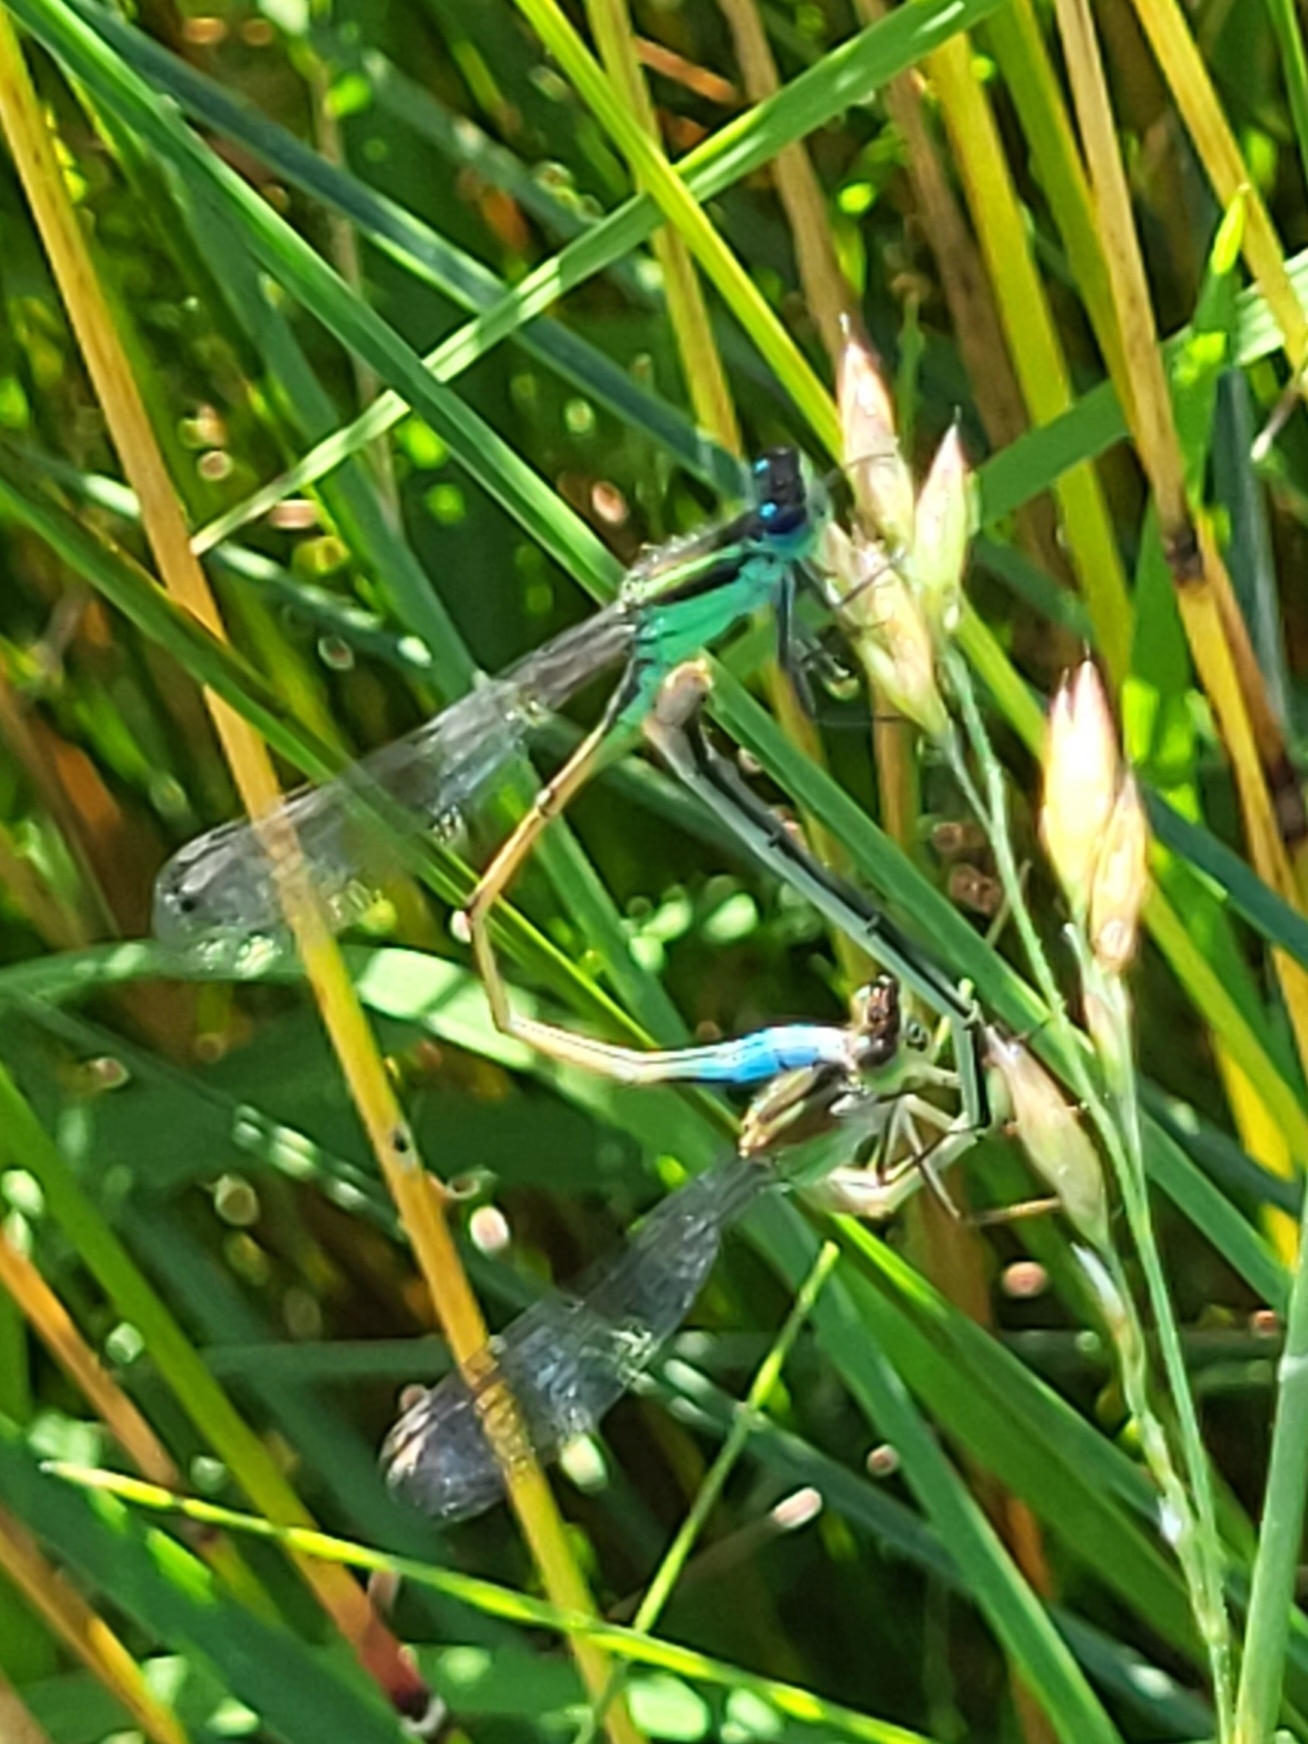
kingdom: Animalia
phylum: Arthropoda
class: Insecta
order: Odonata
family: Coenagrionidae
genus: Ischnura
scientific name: Ischnura ramburii
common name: Rambur's forktail
